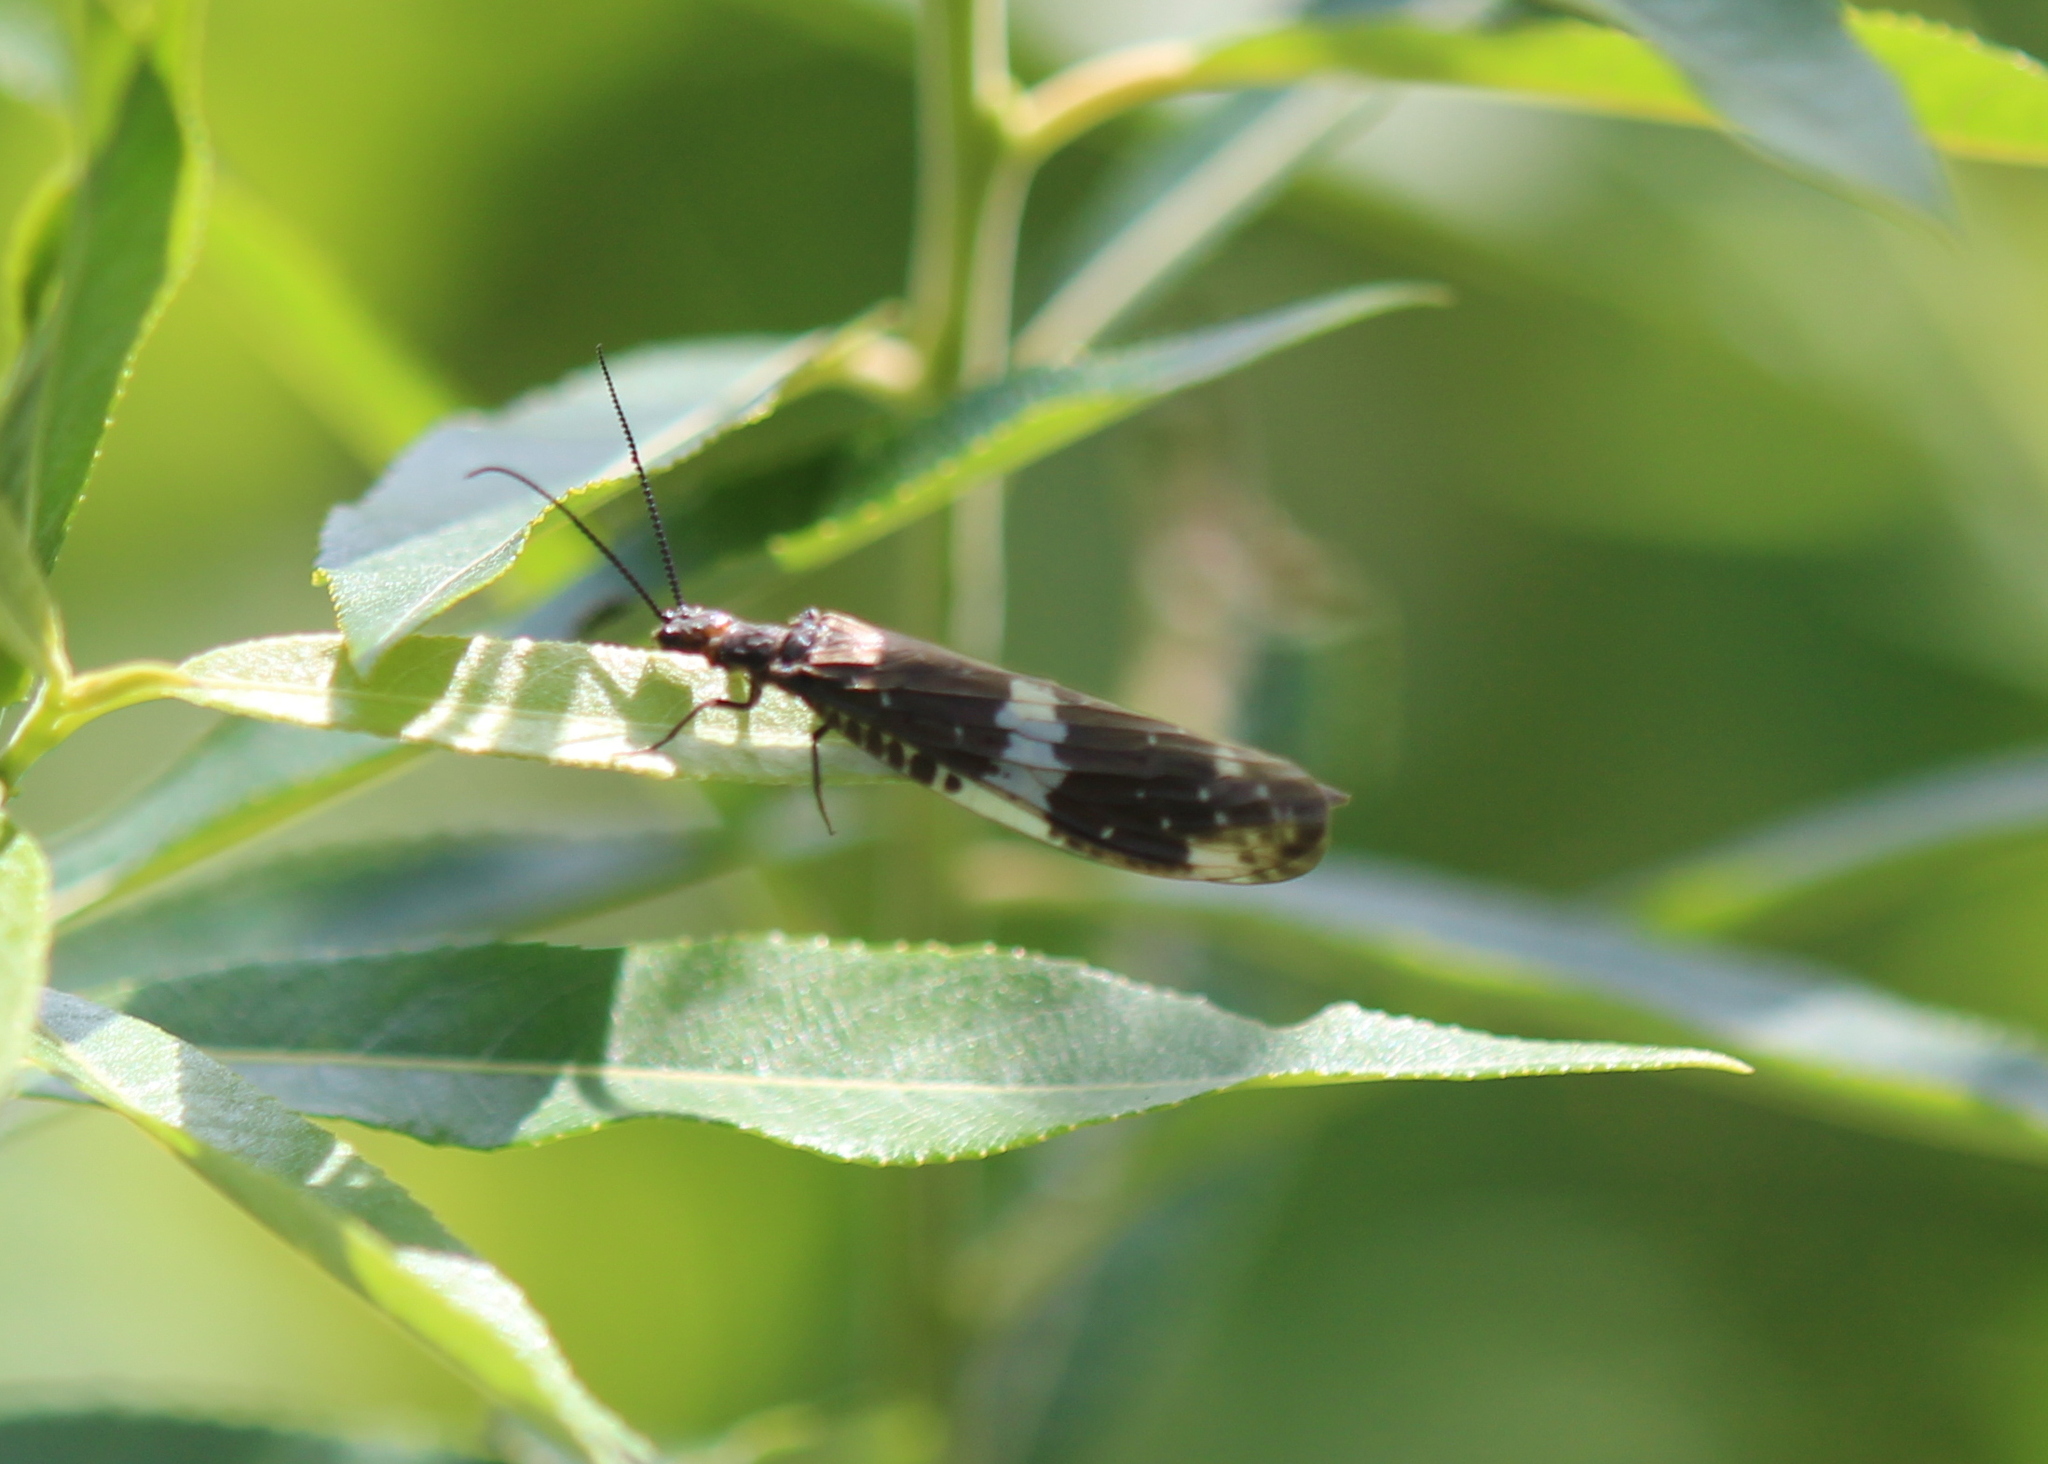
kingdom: Animalia
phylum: Arthropoda
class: Insecta
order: Megaloptera
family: Corydalidae
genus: Nigronia
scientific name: Nigronia serricornis
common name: Serrate dark fishfly
